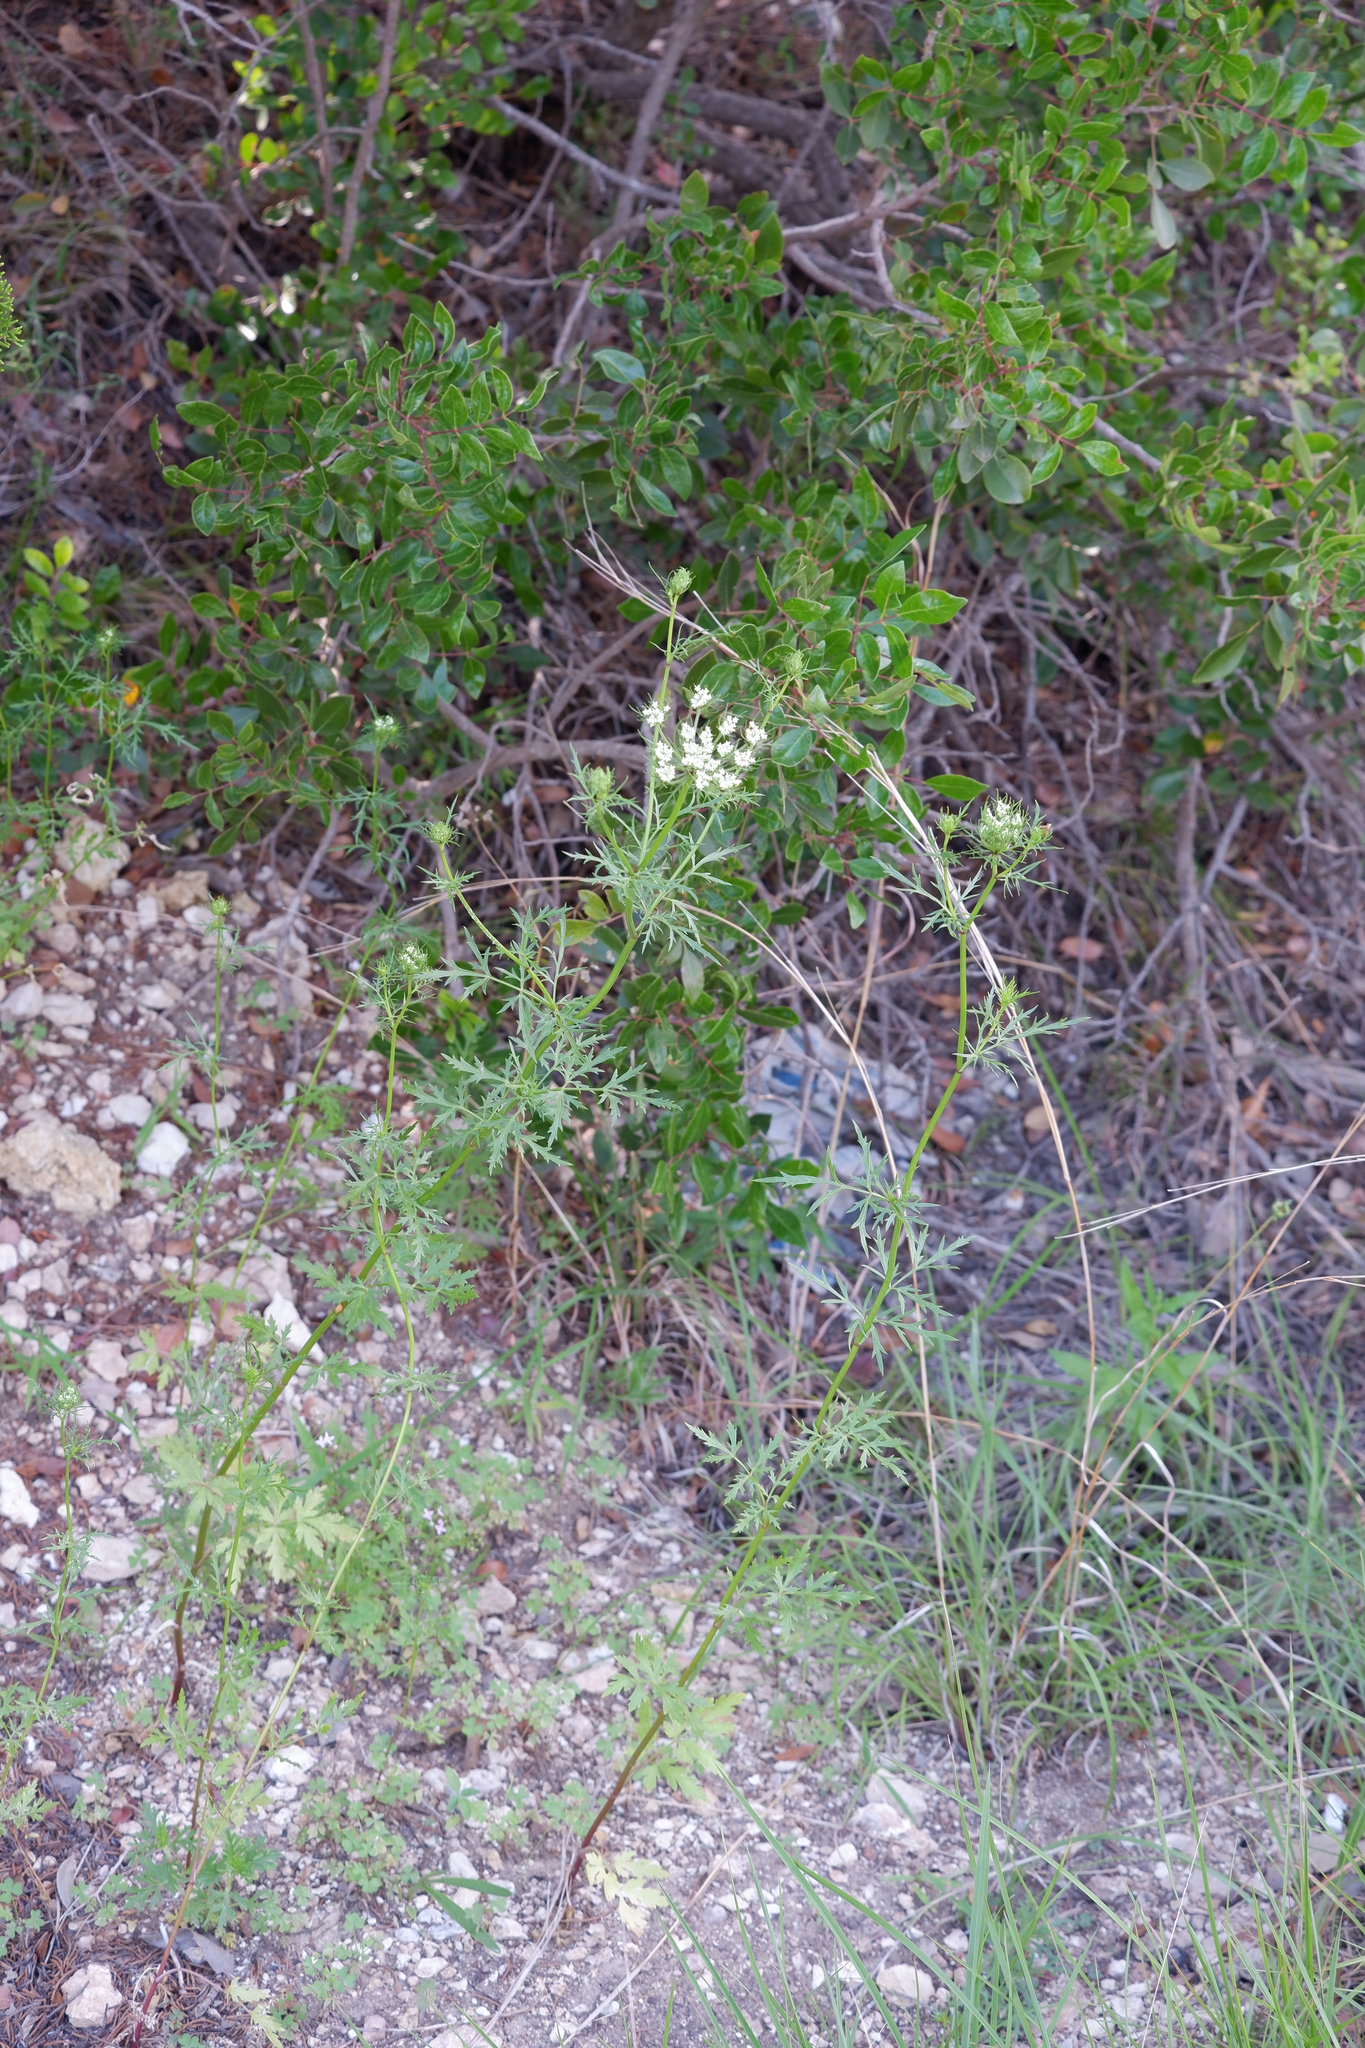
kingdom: Plantae
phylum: Tracheophyta
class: Magnoliopsida
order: Apiales
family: Apiaceae
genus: Daucosma
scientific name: Daucosma laciniatum
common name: Meadow-parasol
